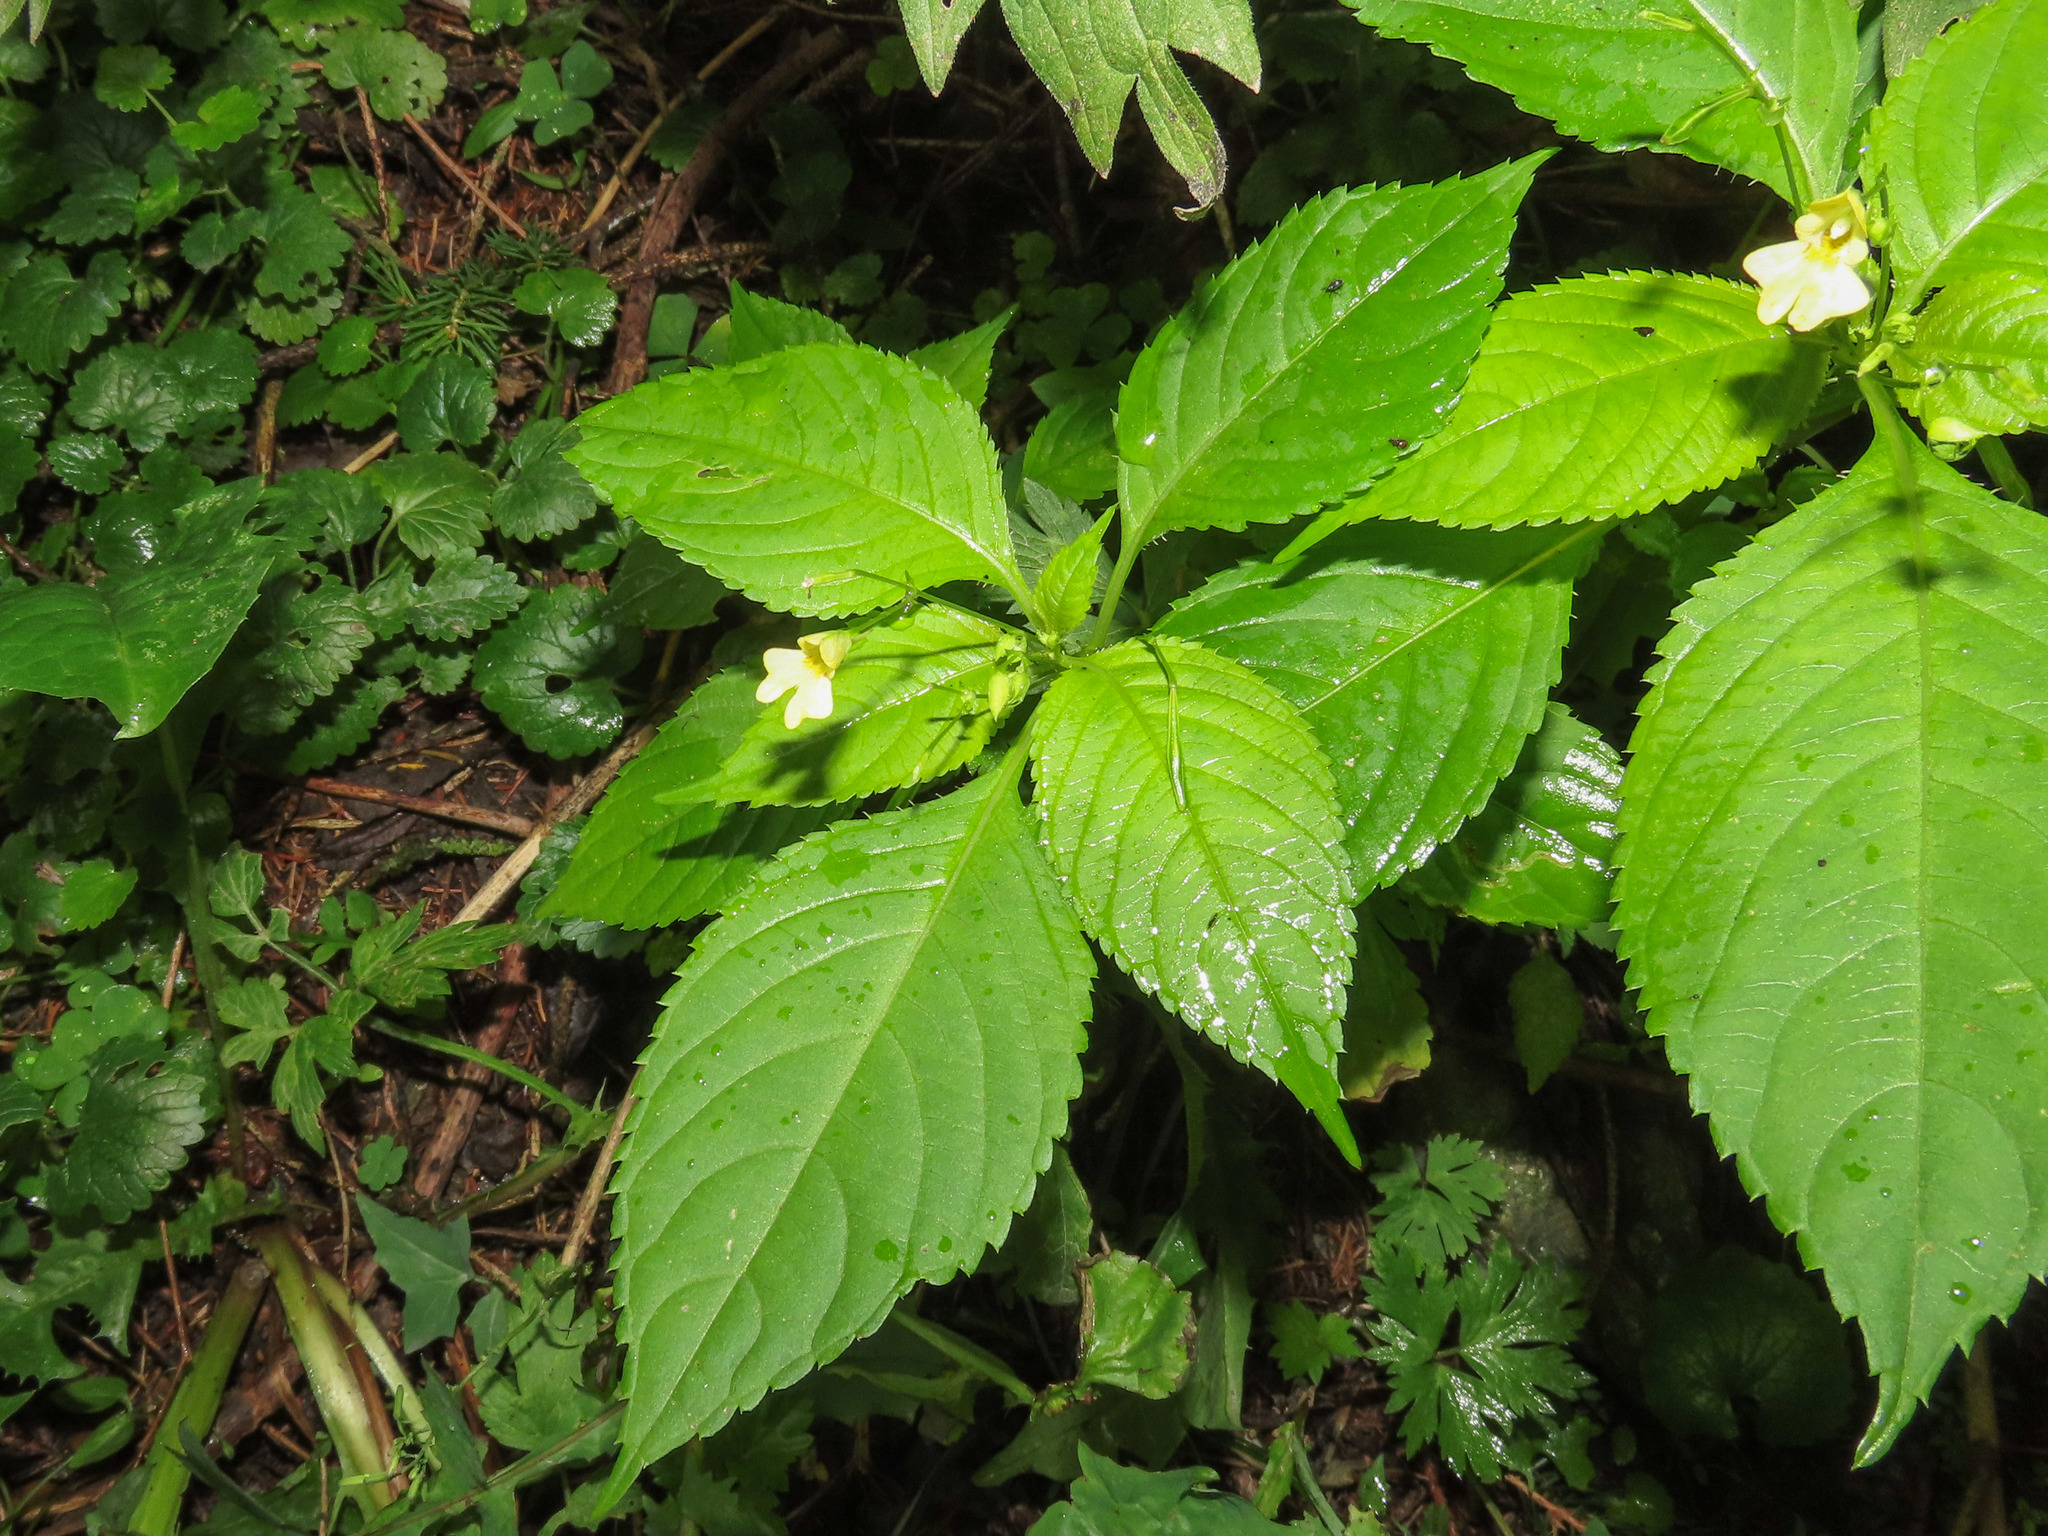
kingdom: Plantae
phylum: Tracheophyta
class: Magnoliopsida
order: Ericales
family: Balsaminaceae
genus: Impatiens
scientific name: Impatiens parviflora
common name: Small balsam
